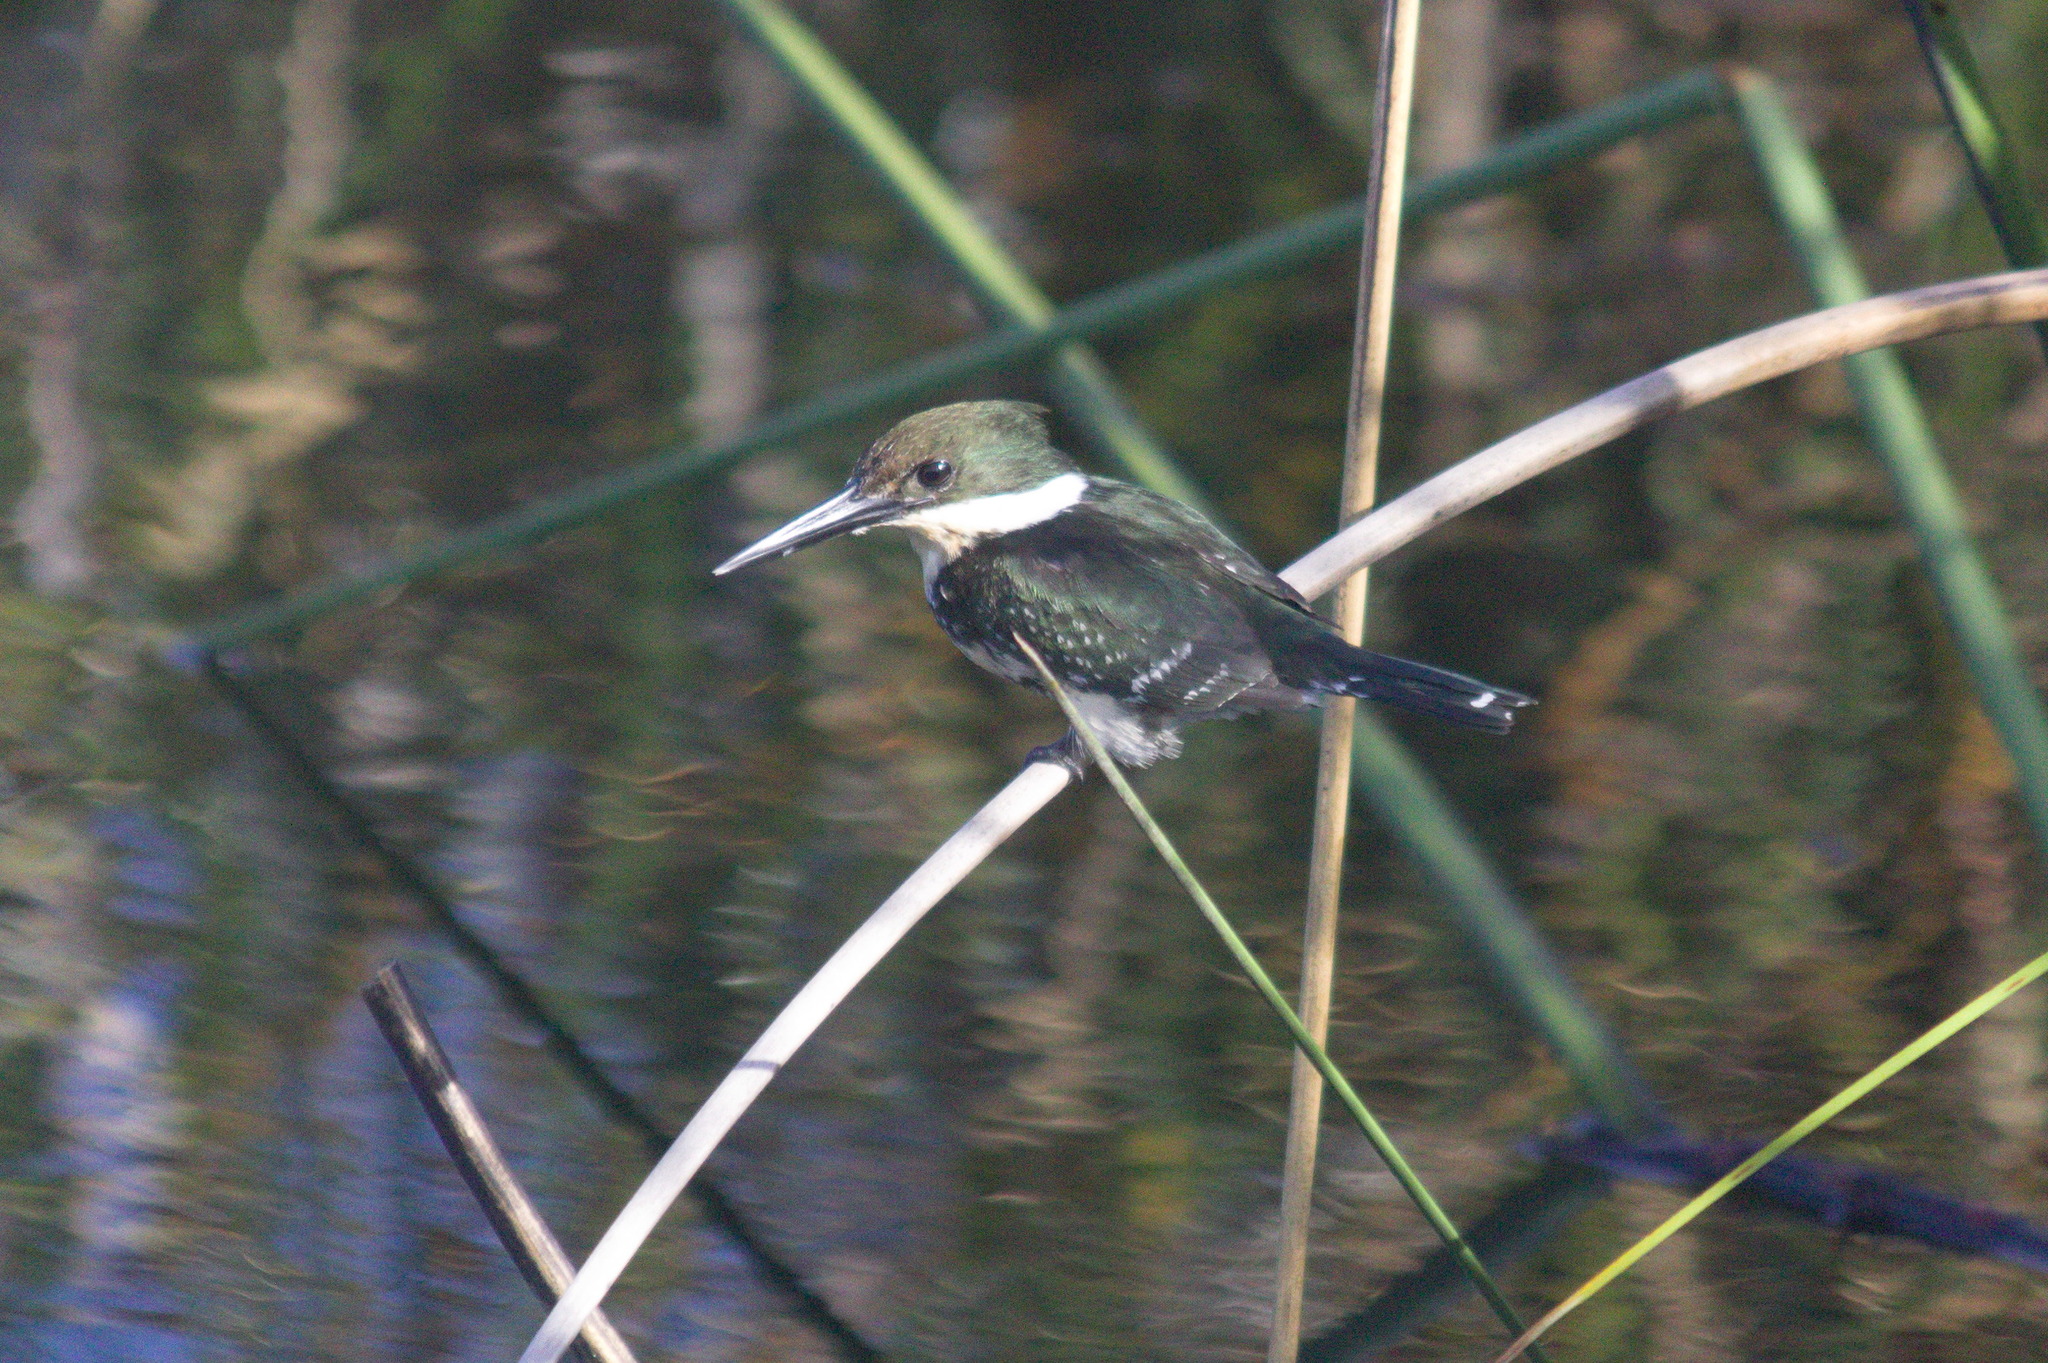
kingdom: Animalia
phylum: Chordata
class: Aves
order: Coraciiformes
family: Alcedinidae
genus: Chloroceryle
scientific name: Chloroceryle americana
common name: Green kingfisher
